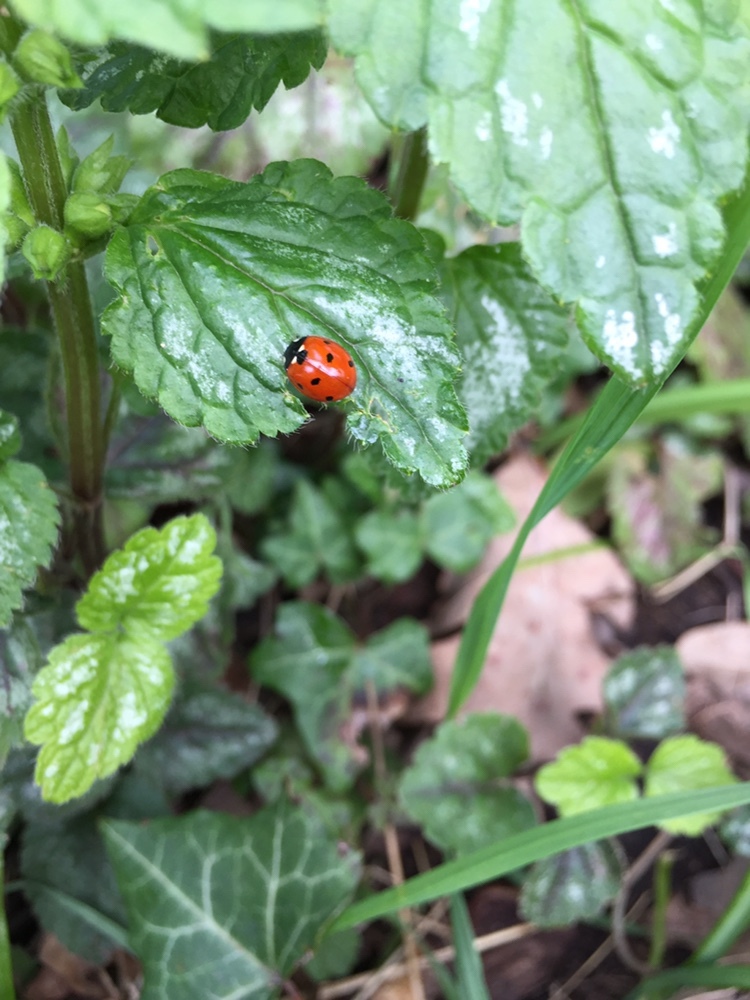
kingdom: Animalia
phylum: Arthropoda
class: Insecta
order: Coleoptera
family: Coccinellidae
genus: Coccinella
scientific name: Coccinella septempunctata
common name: Sevenspotted lady beetle
